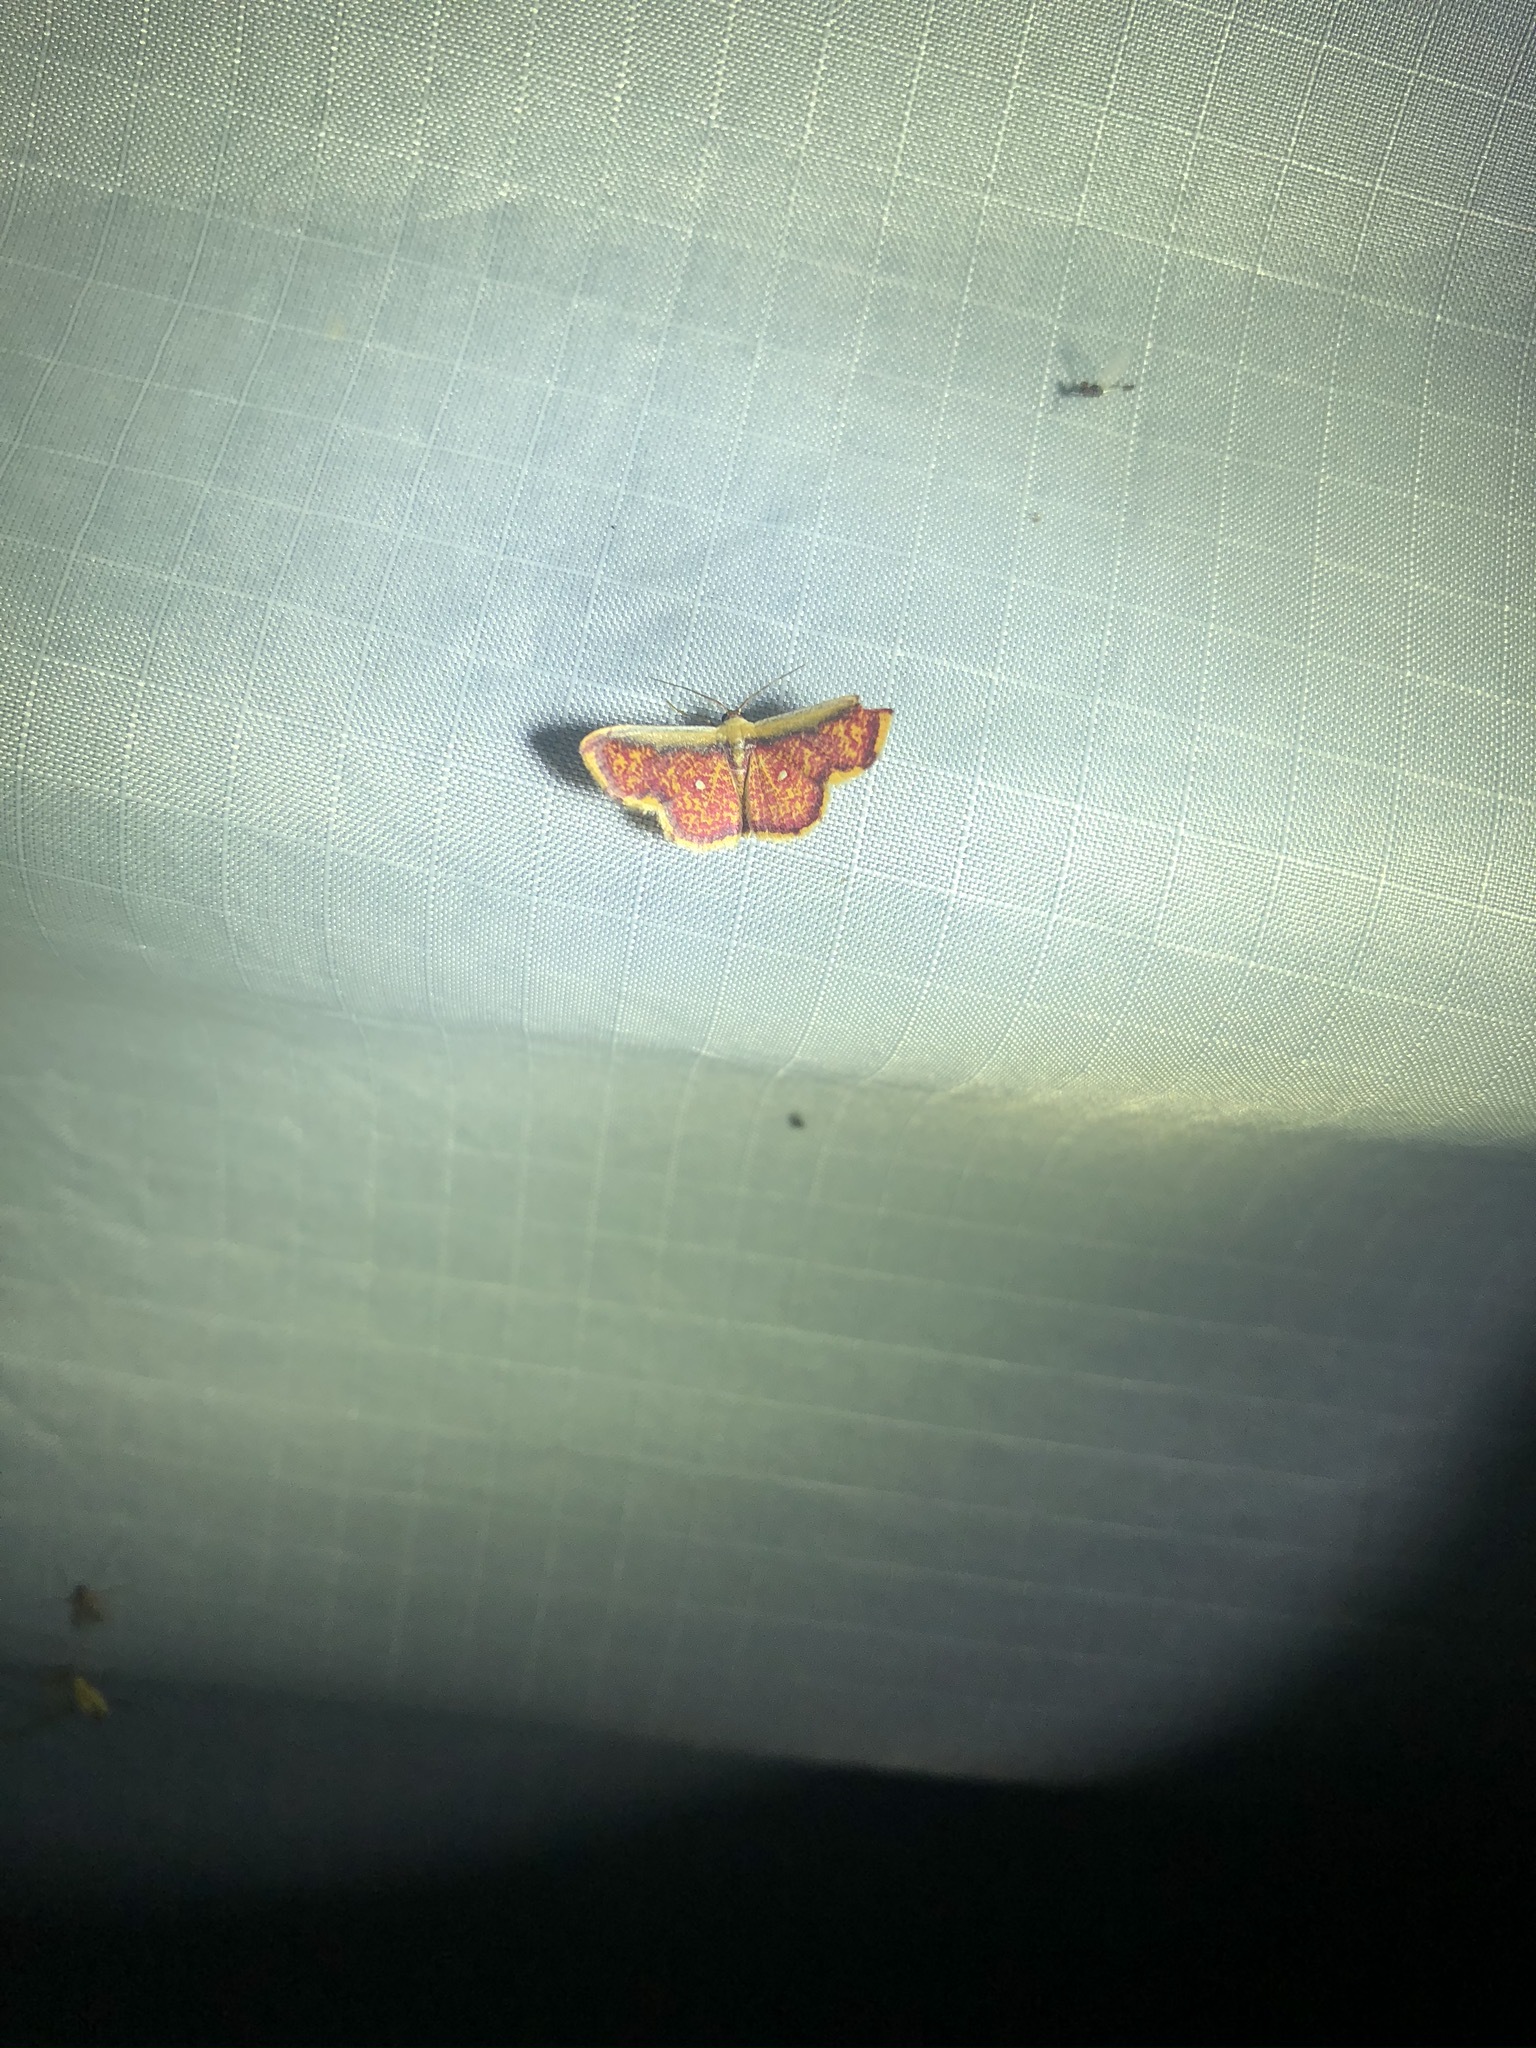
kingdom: Animalia
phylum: Arthropoda
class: Insecta
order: Lepidoptera
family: Geometridae
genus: Leptostales
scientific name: Leptostales vitticostata
